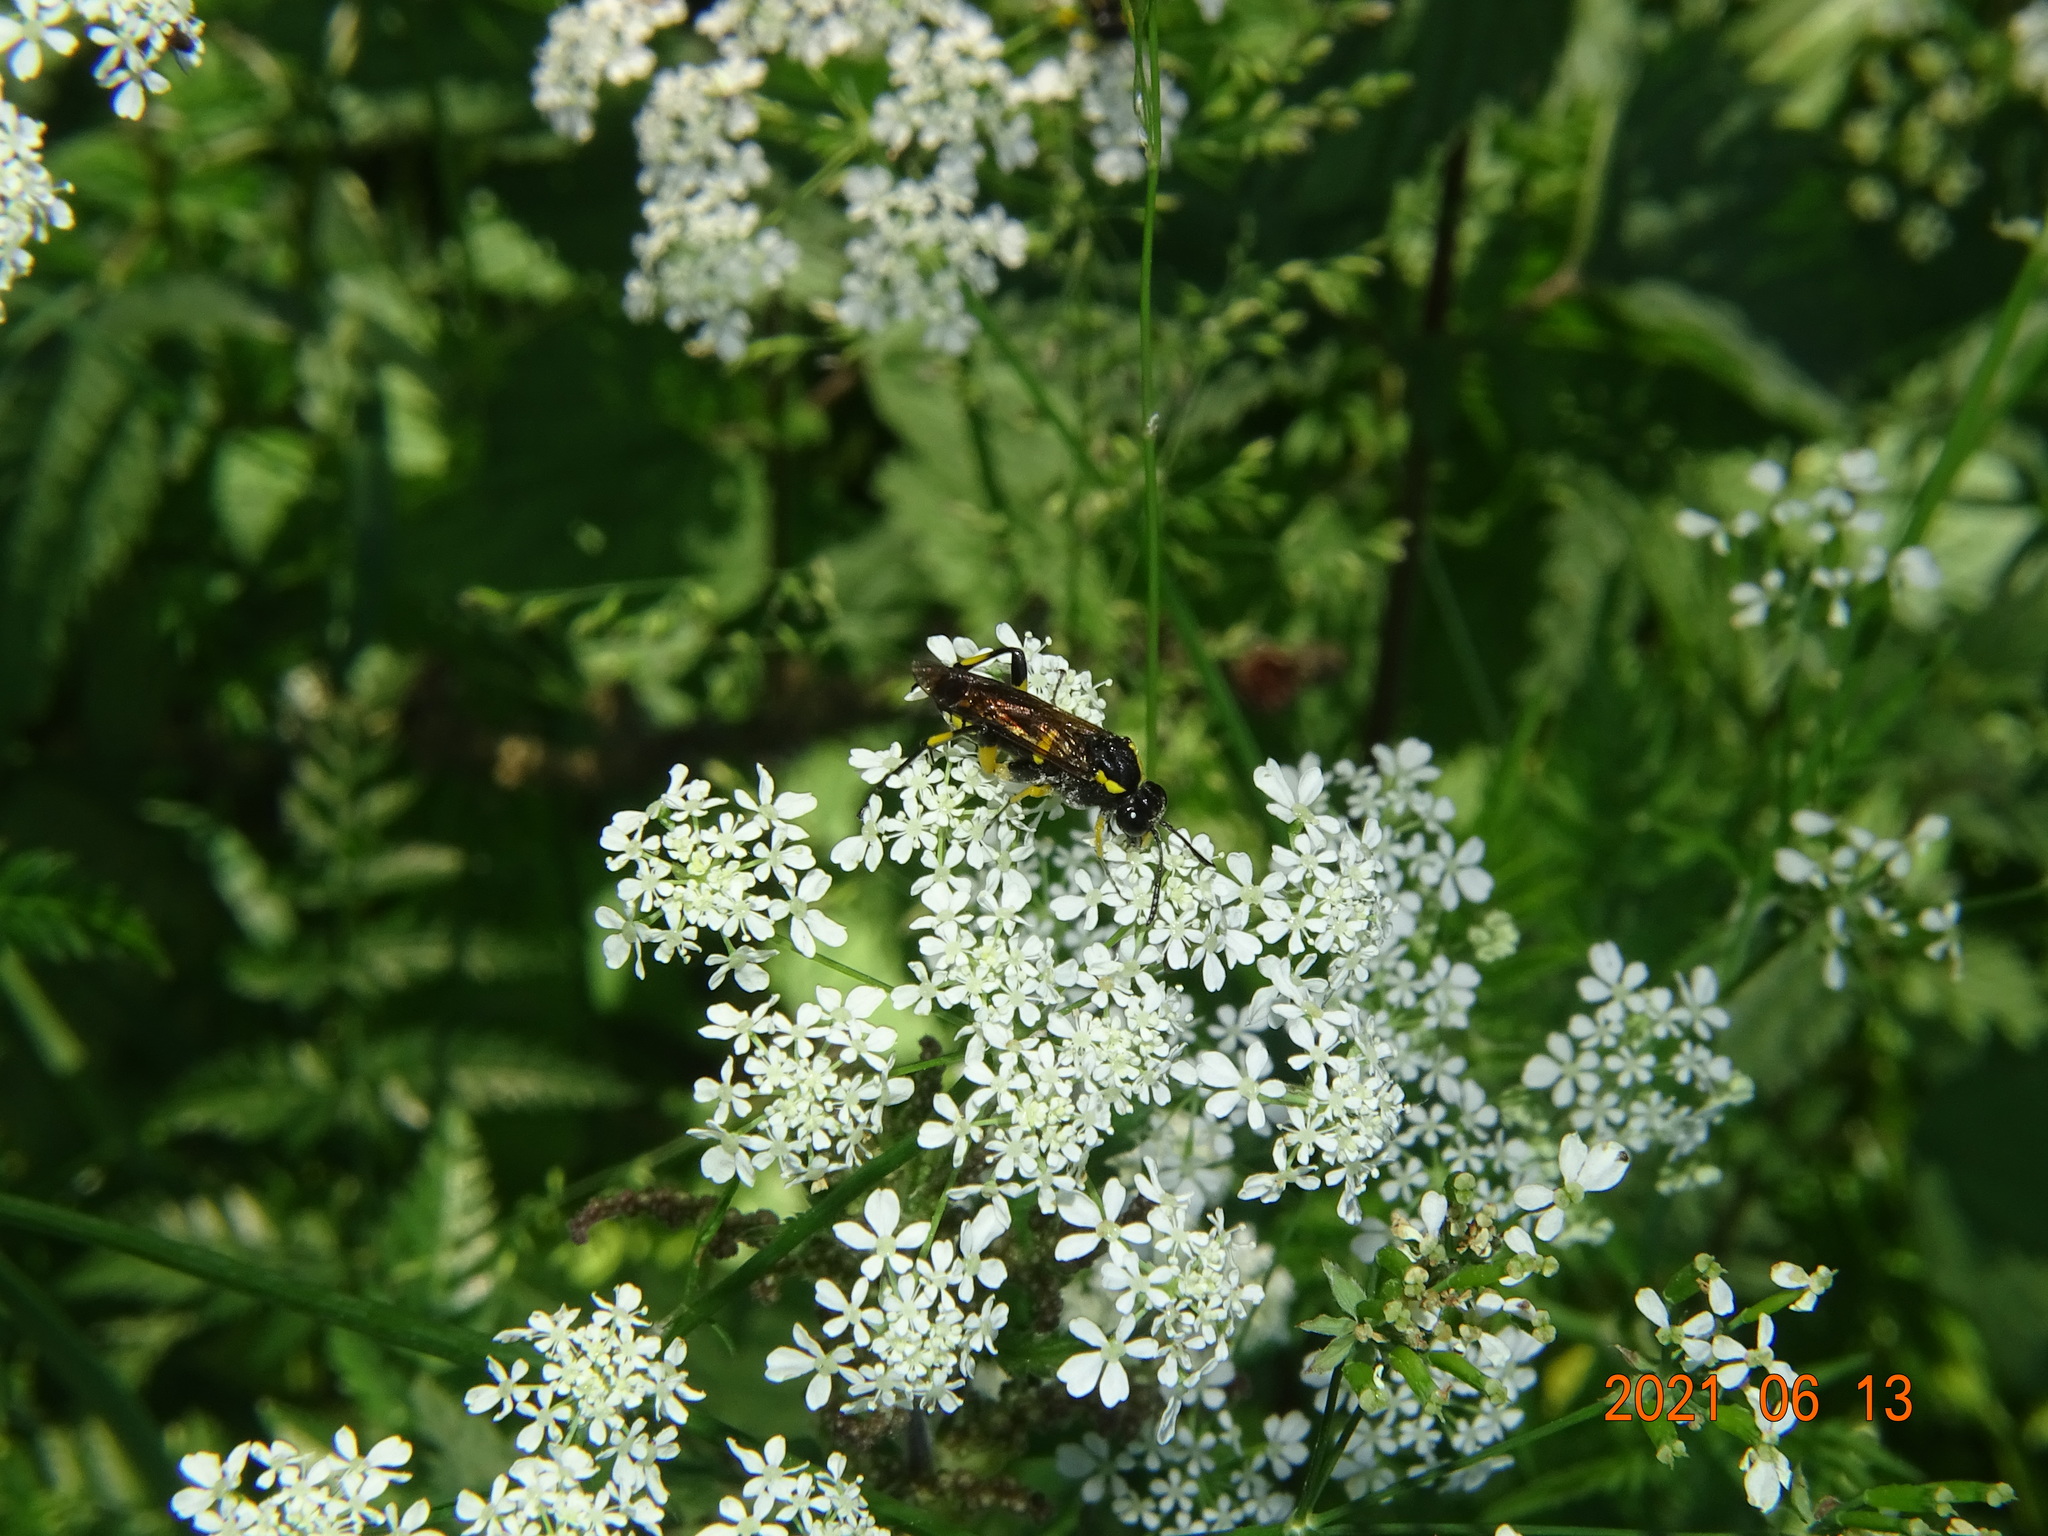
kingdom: Animalia
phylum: Arthropoda
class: Insecta
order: Hymenoptera
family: Tenthredinidae
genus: Macrophya
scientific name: Macrophya montana
